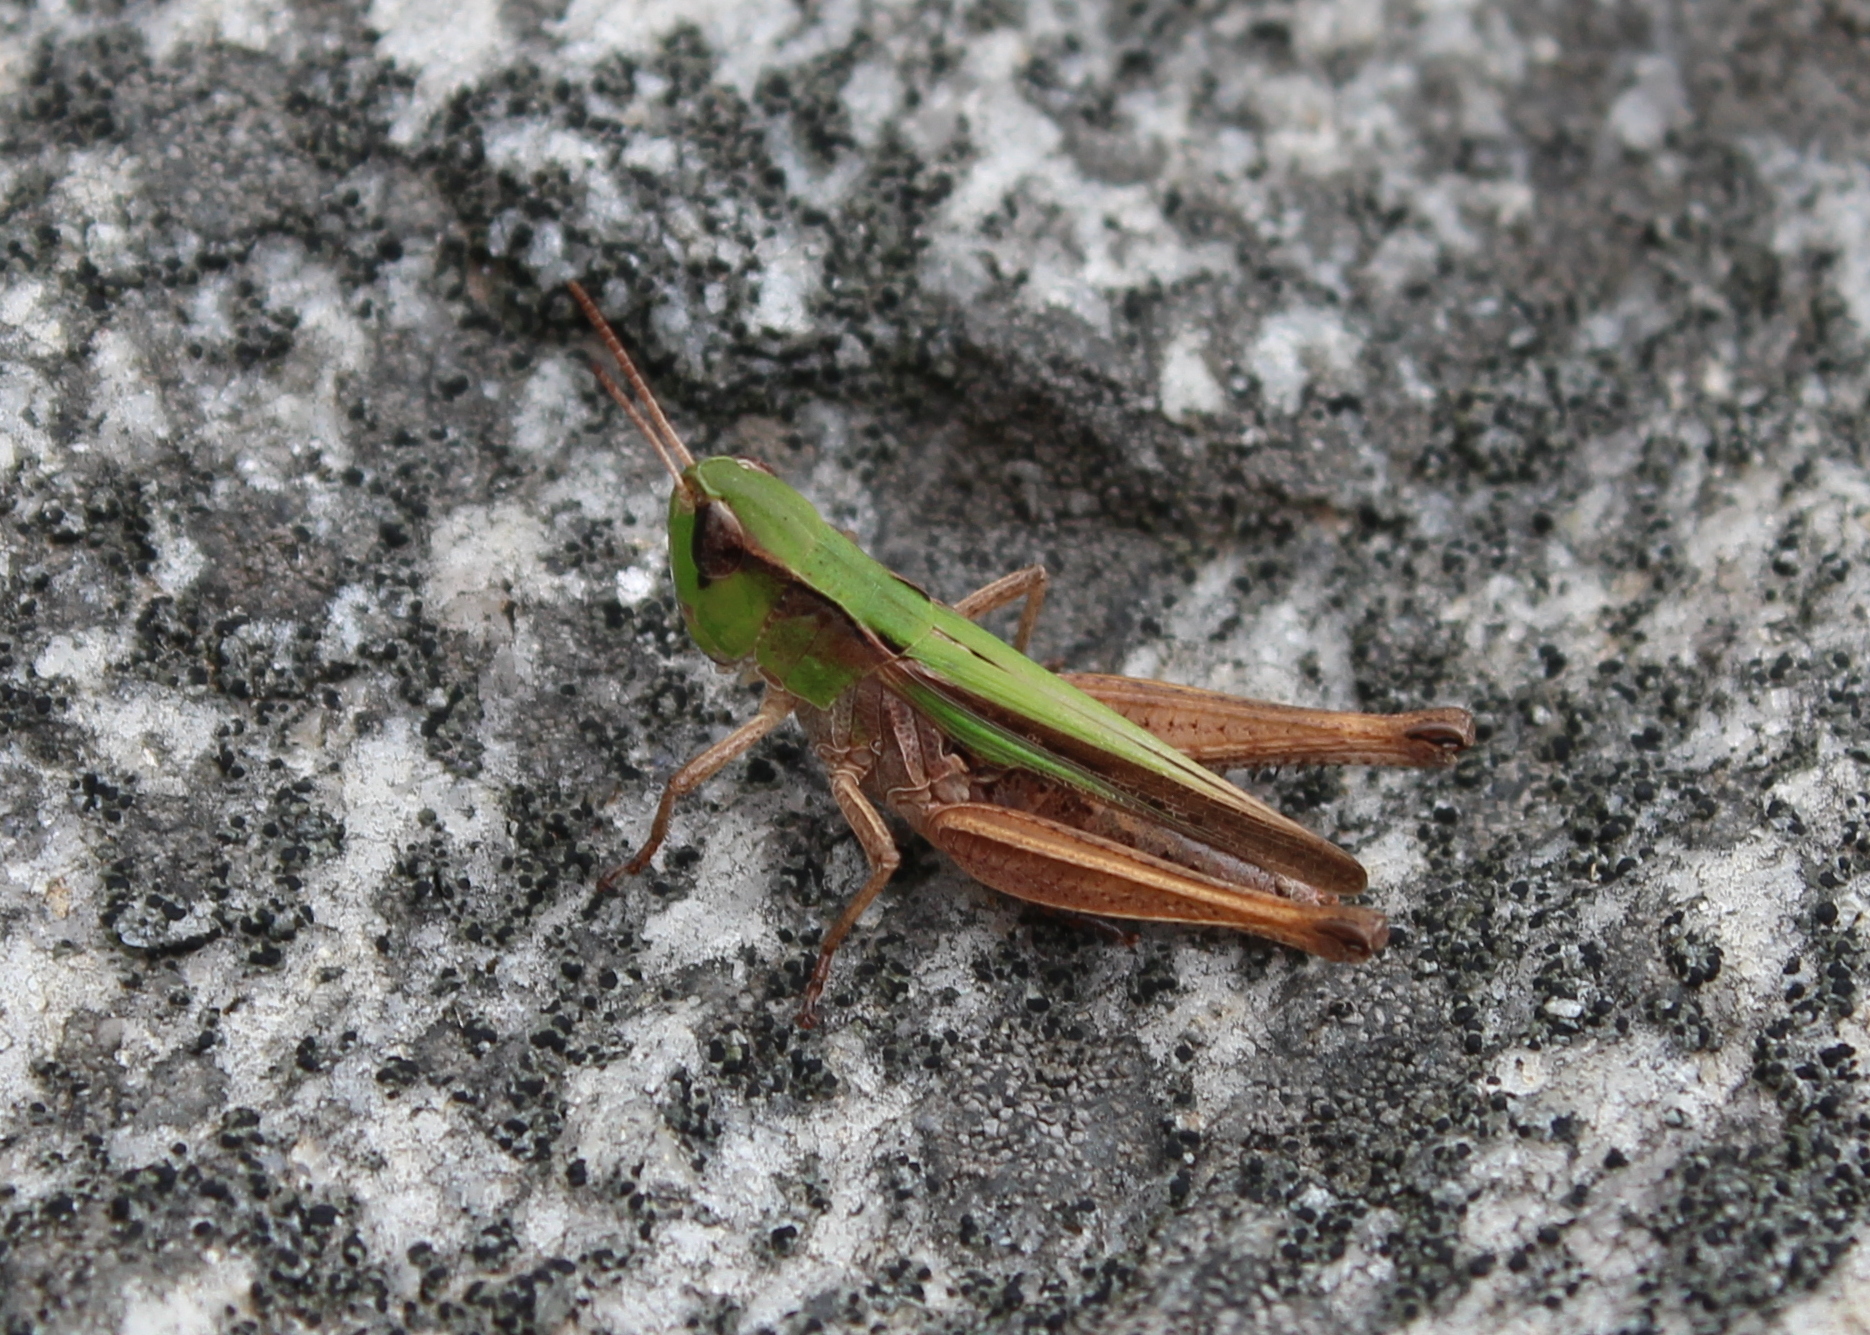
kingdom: Animalia
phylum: Arthropoda
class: Insecta
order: Orthoptera
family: Acrididae
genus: Orphulella
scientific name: Orphulella speciosa
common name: Pasture grasshopper
